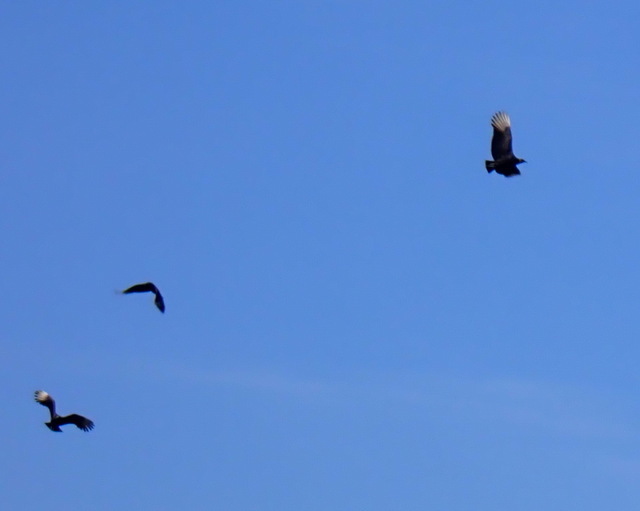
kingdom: Animalia
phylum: Chordata
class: Aves
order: Accipitriformes
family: Cathartidae
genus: Coragyps
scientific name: Coragyps atratus
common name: Black vulture
